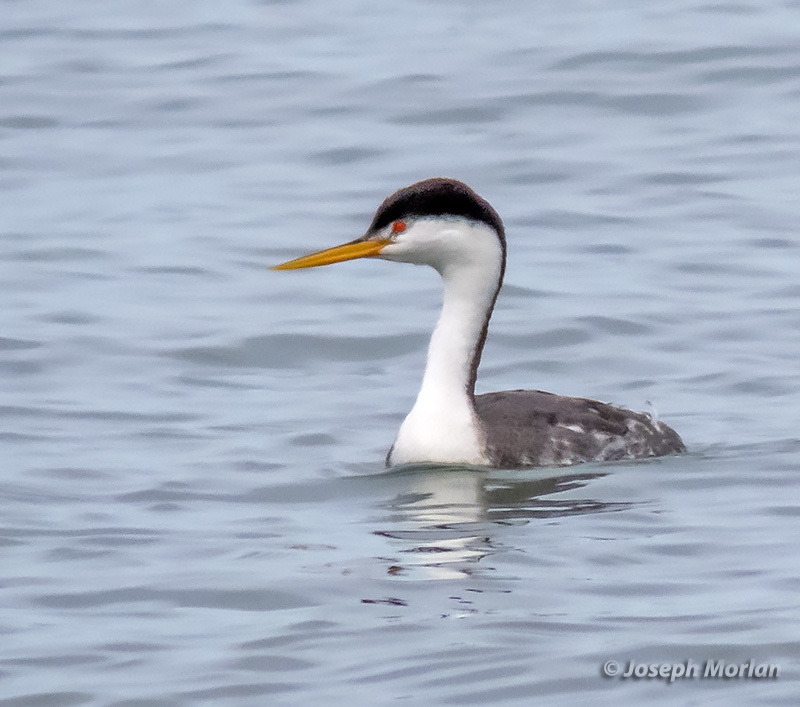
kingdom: Animalia
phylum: Chordata
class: Aves
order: Podicipediformes
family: Podicipedidae
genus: Aechmophorus
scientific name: Aechmophorus clarkii
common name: Clark's grebe
